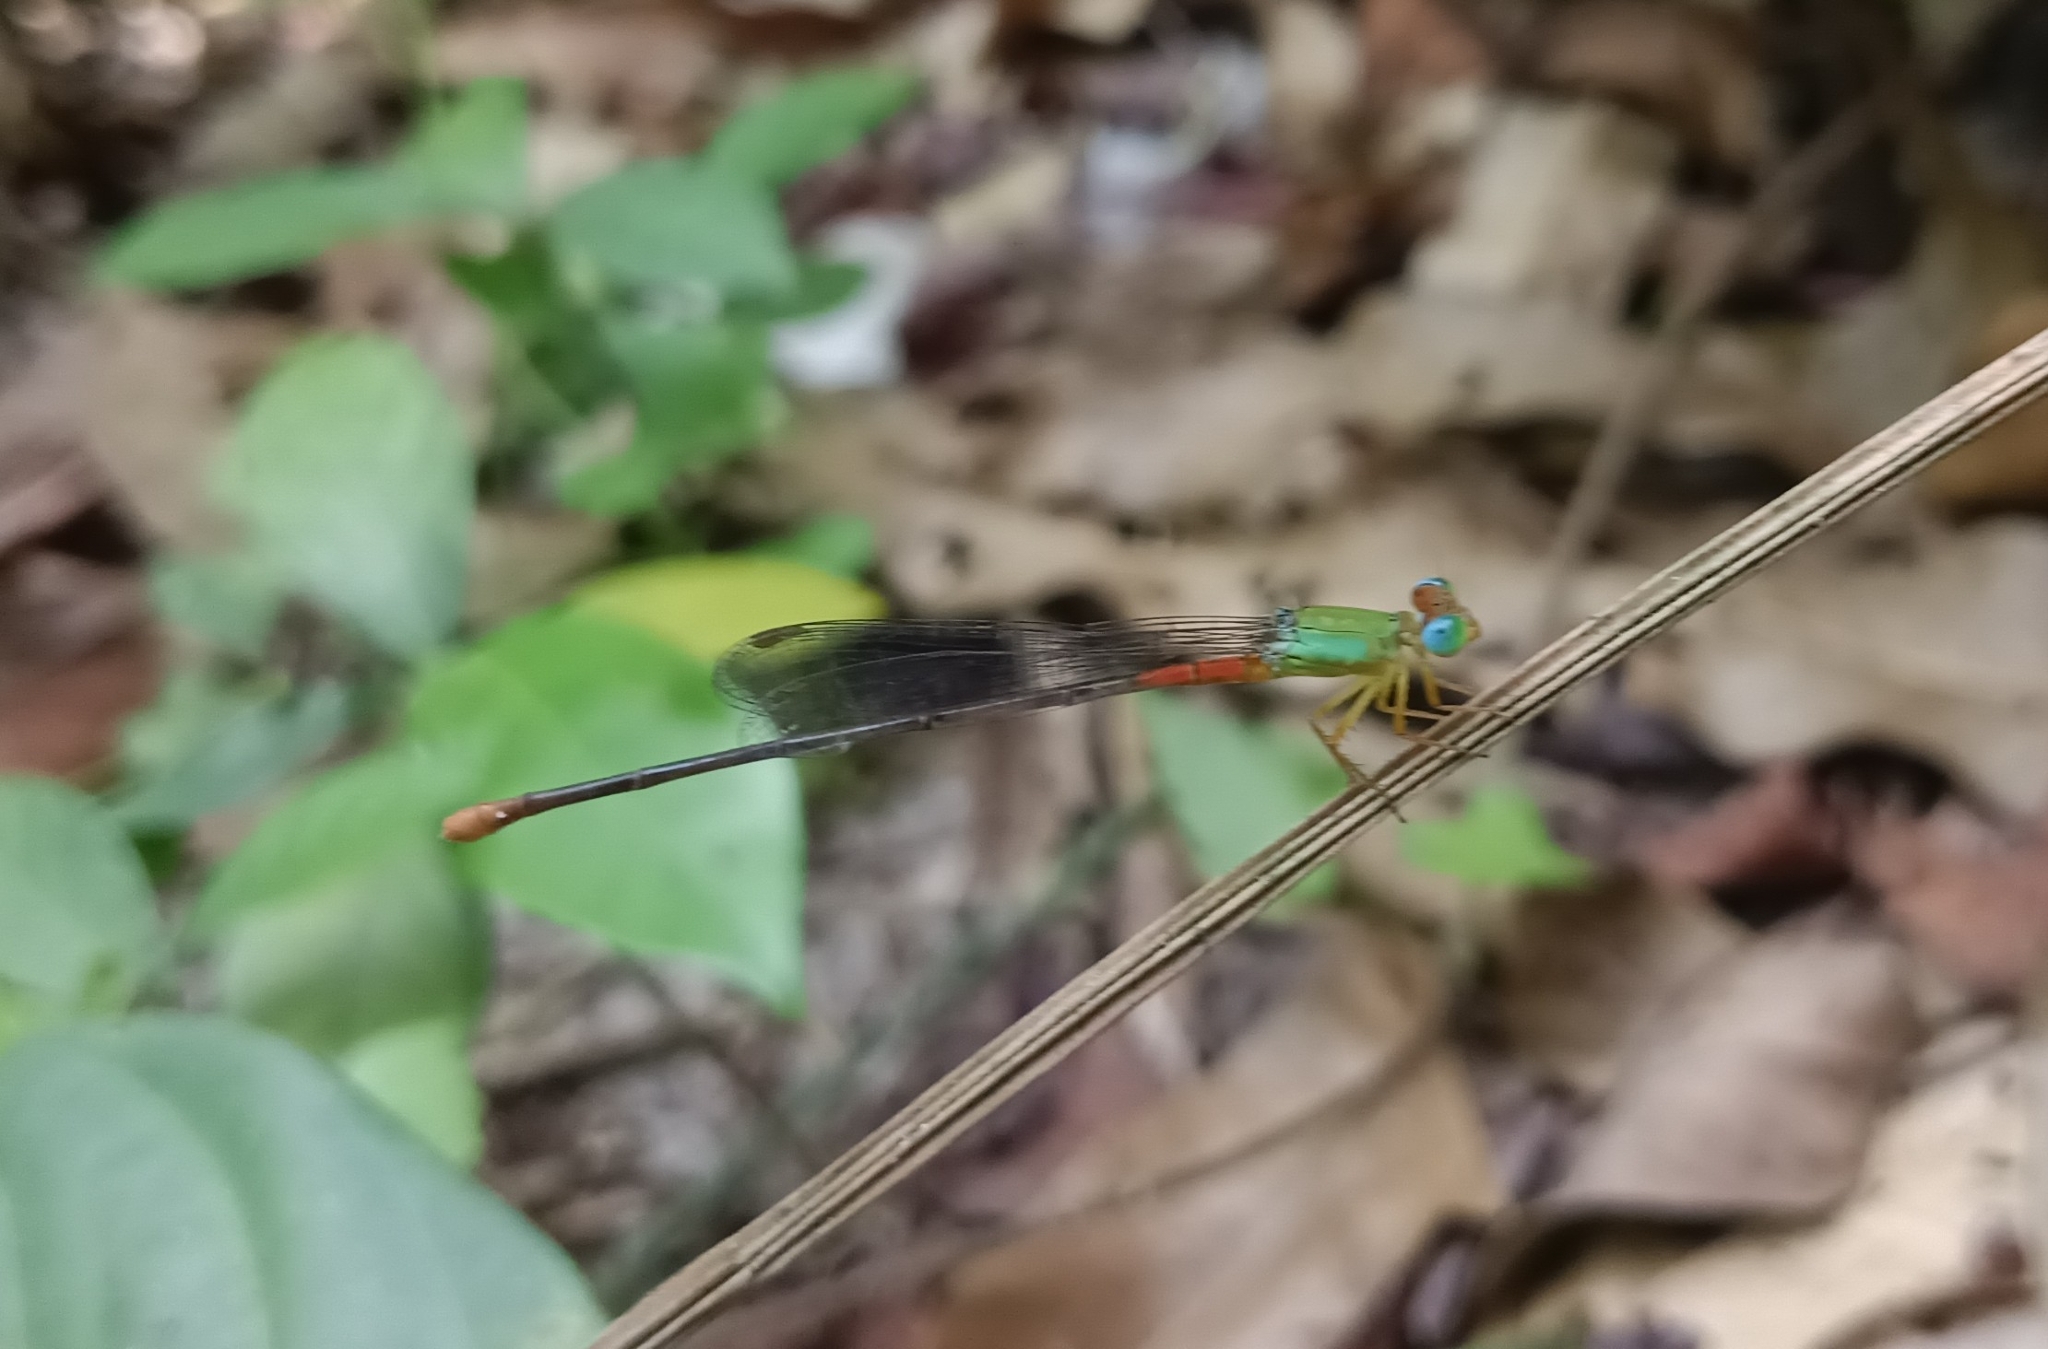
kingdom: Animalia
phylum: Arthropoda
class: Insecta
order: Odonata
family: Coenagrionidae
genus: Ceriagrion
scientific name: Ceriagrion cerinorubellum
